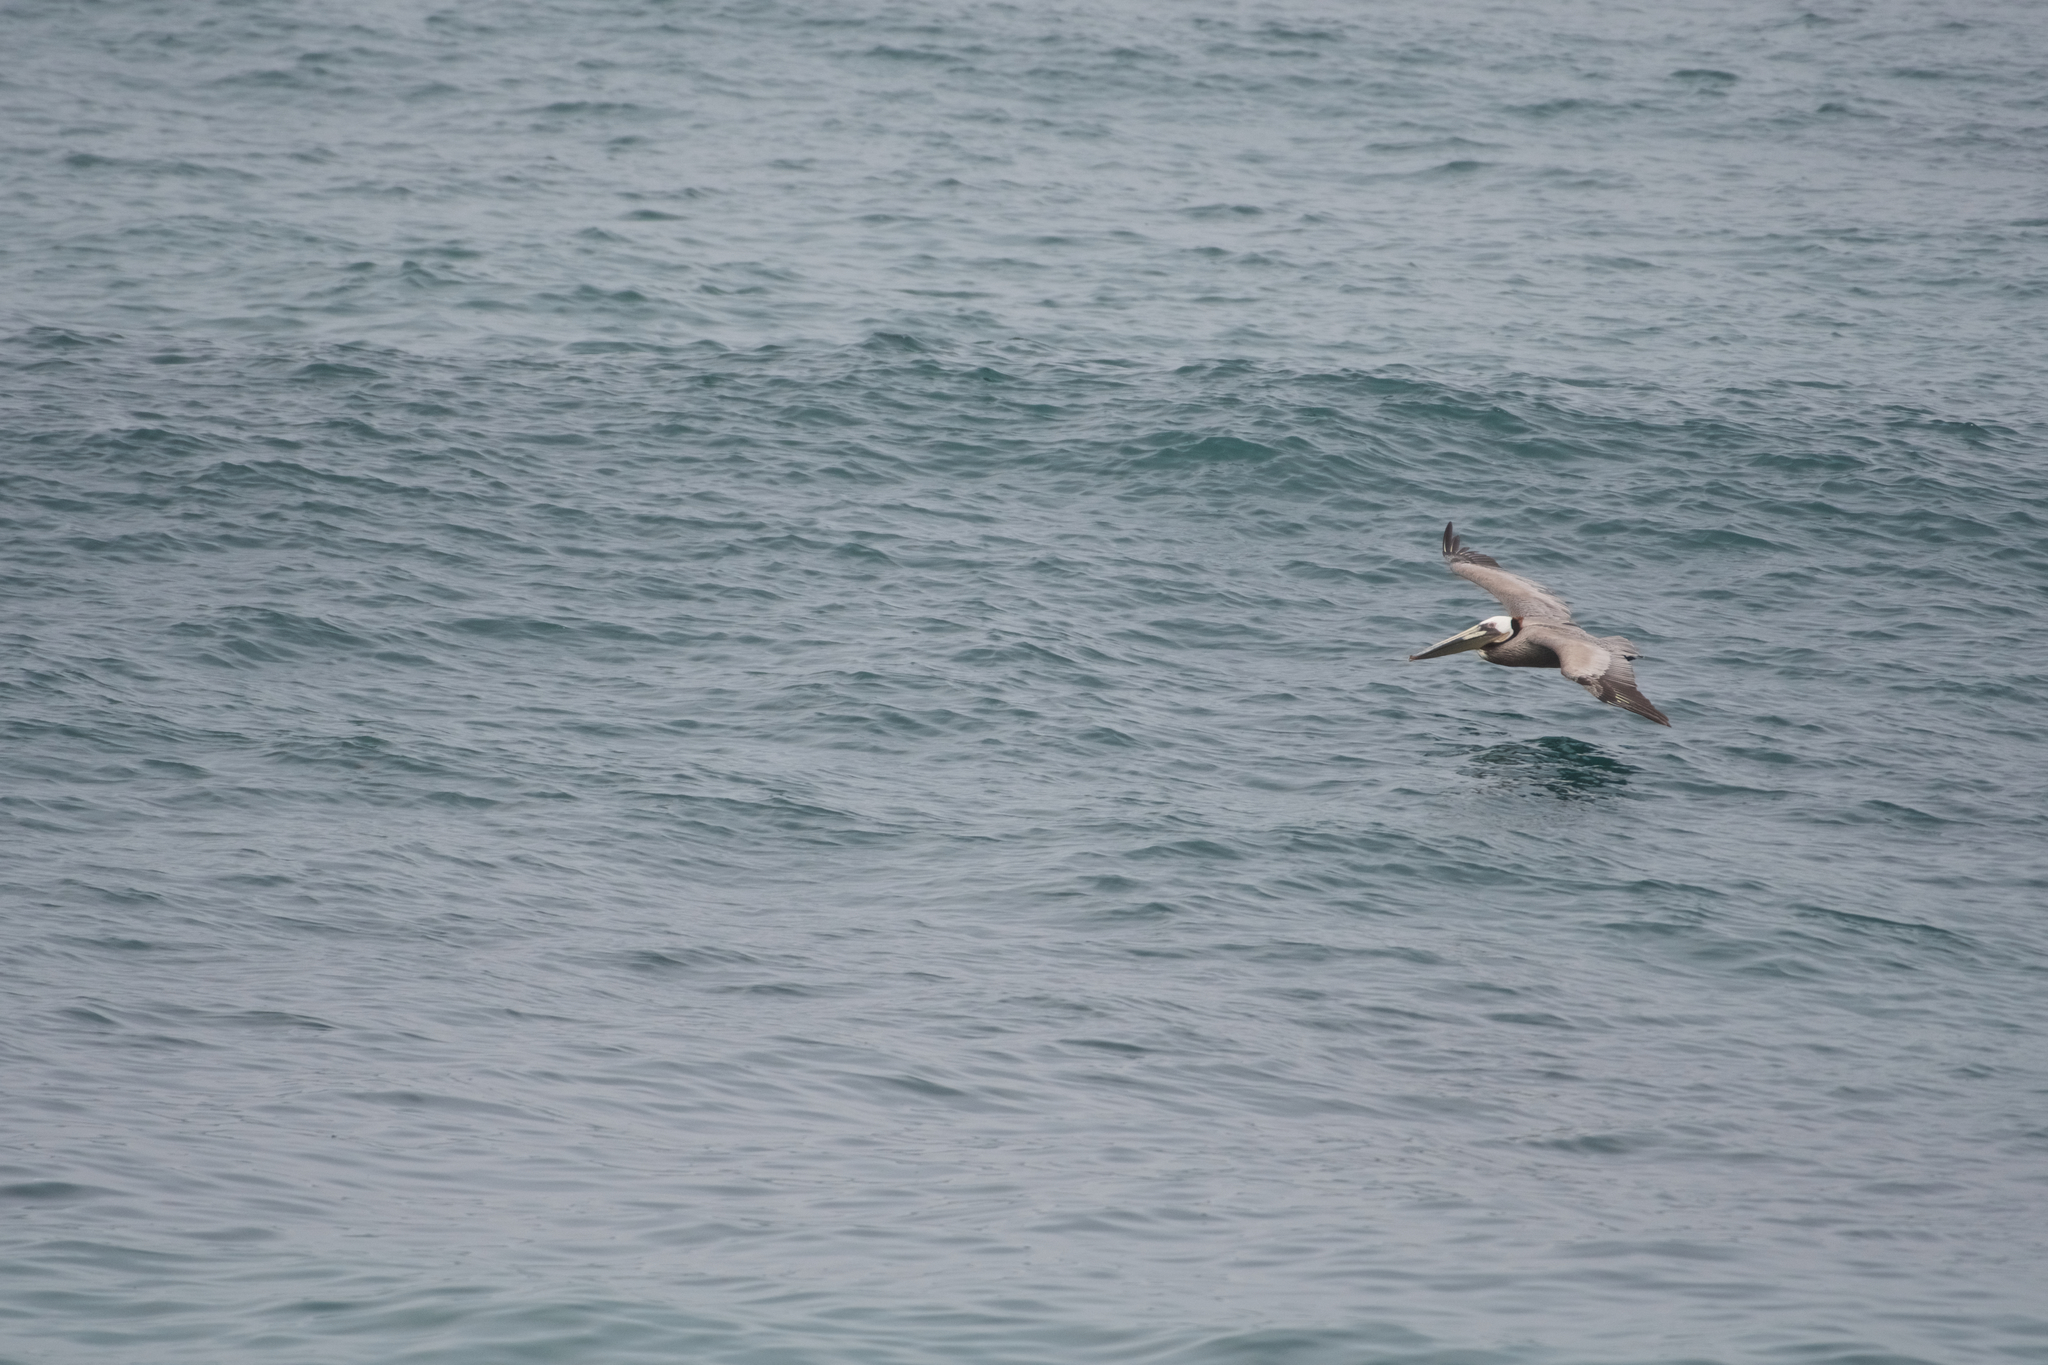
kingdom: Animalia
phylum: Chordata
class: Aves
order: Pelecaniformes
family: Pelecanidae
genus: Pelecanus
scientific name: Pelecanus occidentalis
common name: Brown pelican
